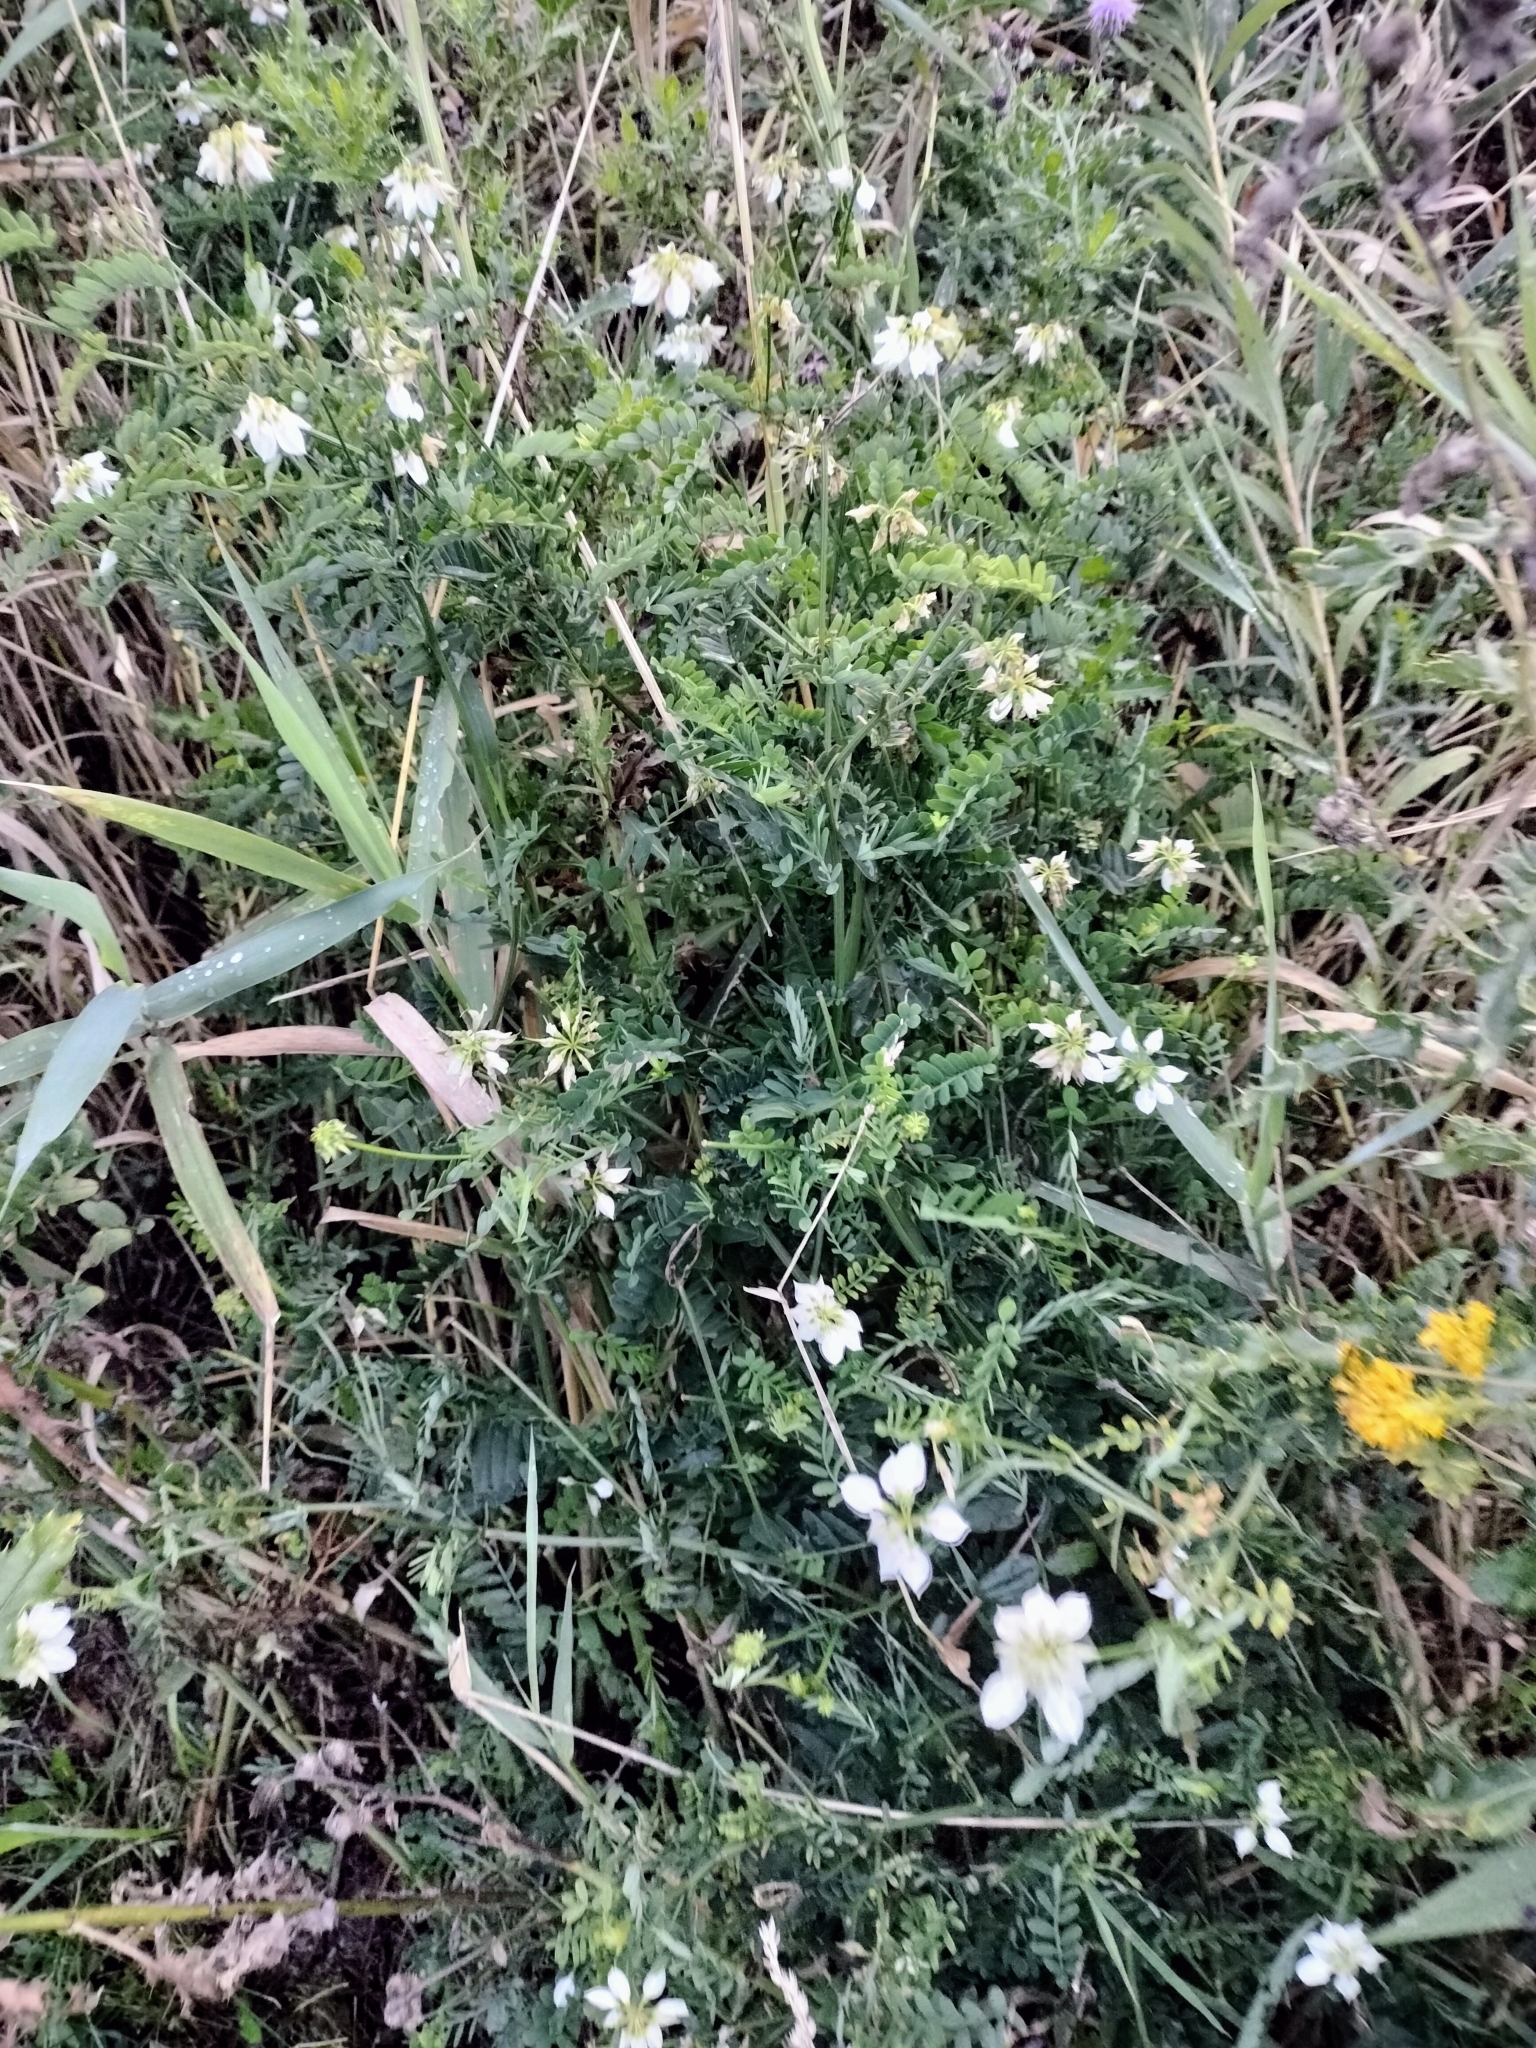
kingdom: Plantae
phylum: Tracheophyta
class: Magnoliopsida
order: Fabales
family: Fabaceae
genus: Coronilla
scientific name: Coronilla varia
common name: Crownvetch
